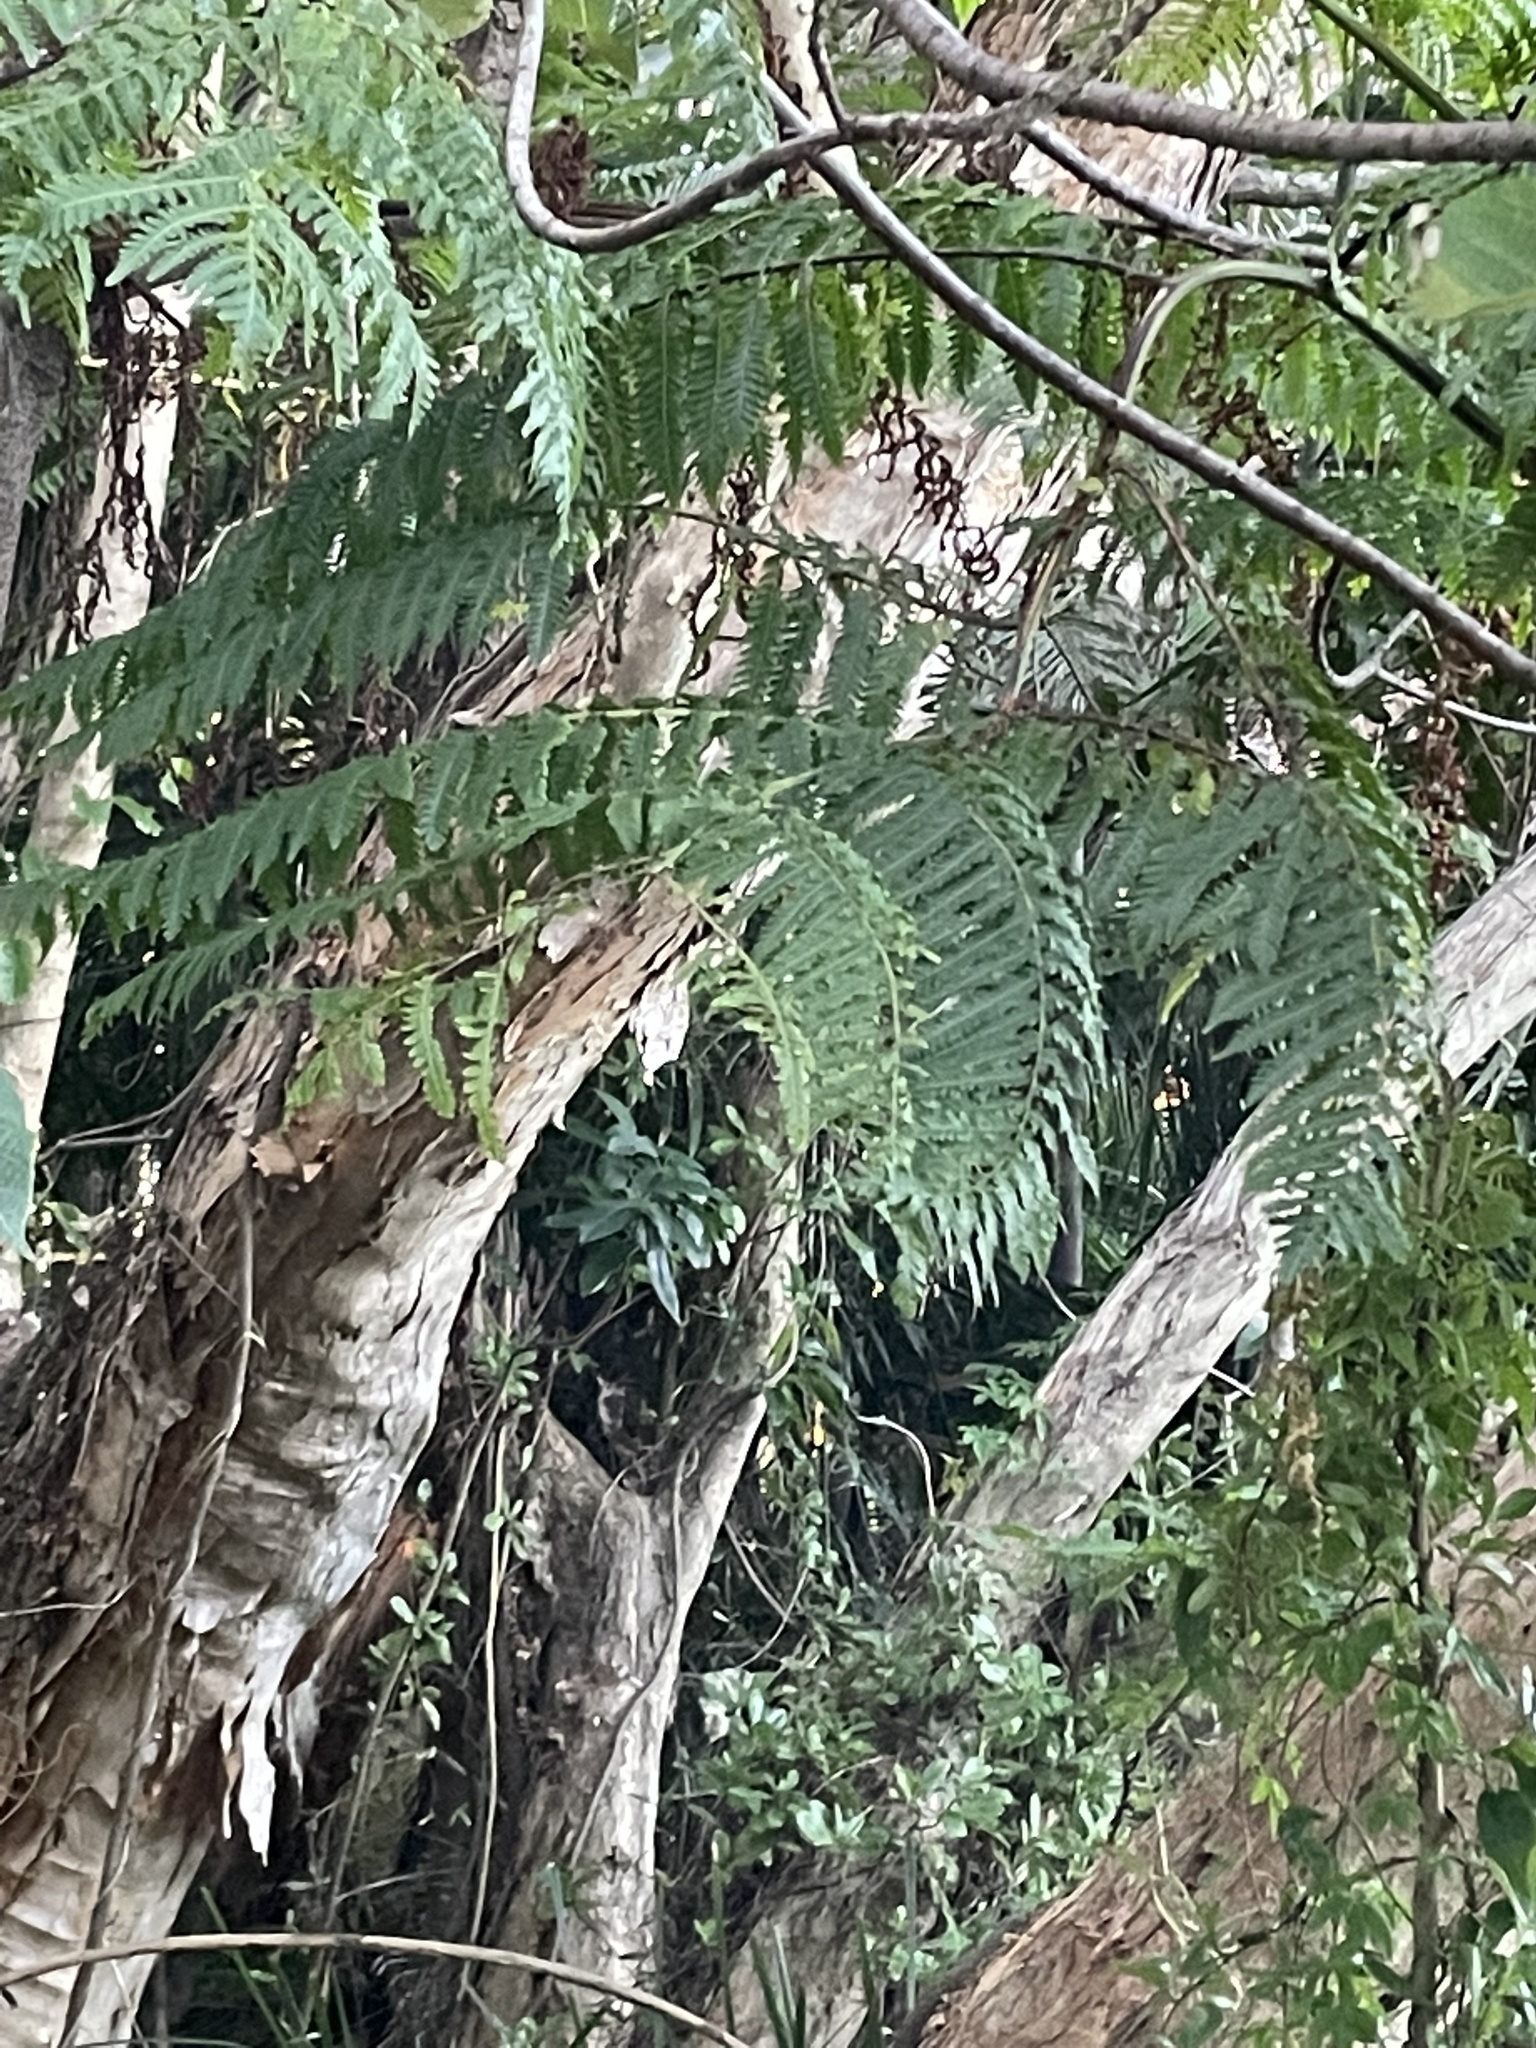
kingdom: Plantae
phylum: Tracheophyta
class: Polypodiopsida
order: Cyatheales
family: Cyatheaceae
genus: Sphaeropteris
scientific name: Sphaeropteris cooperi
